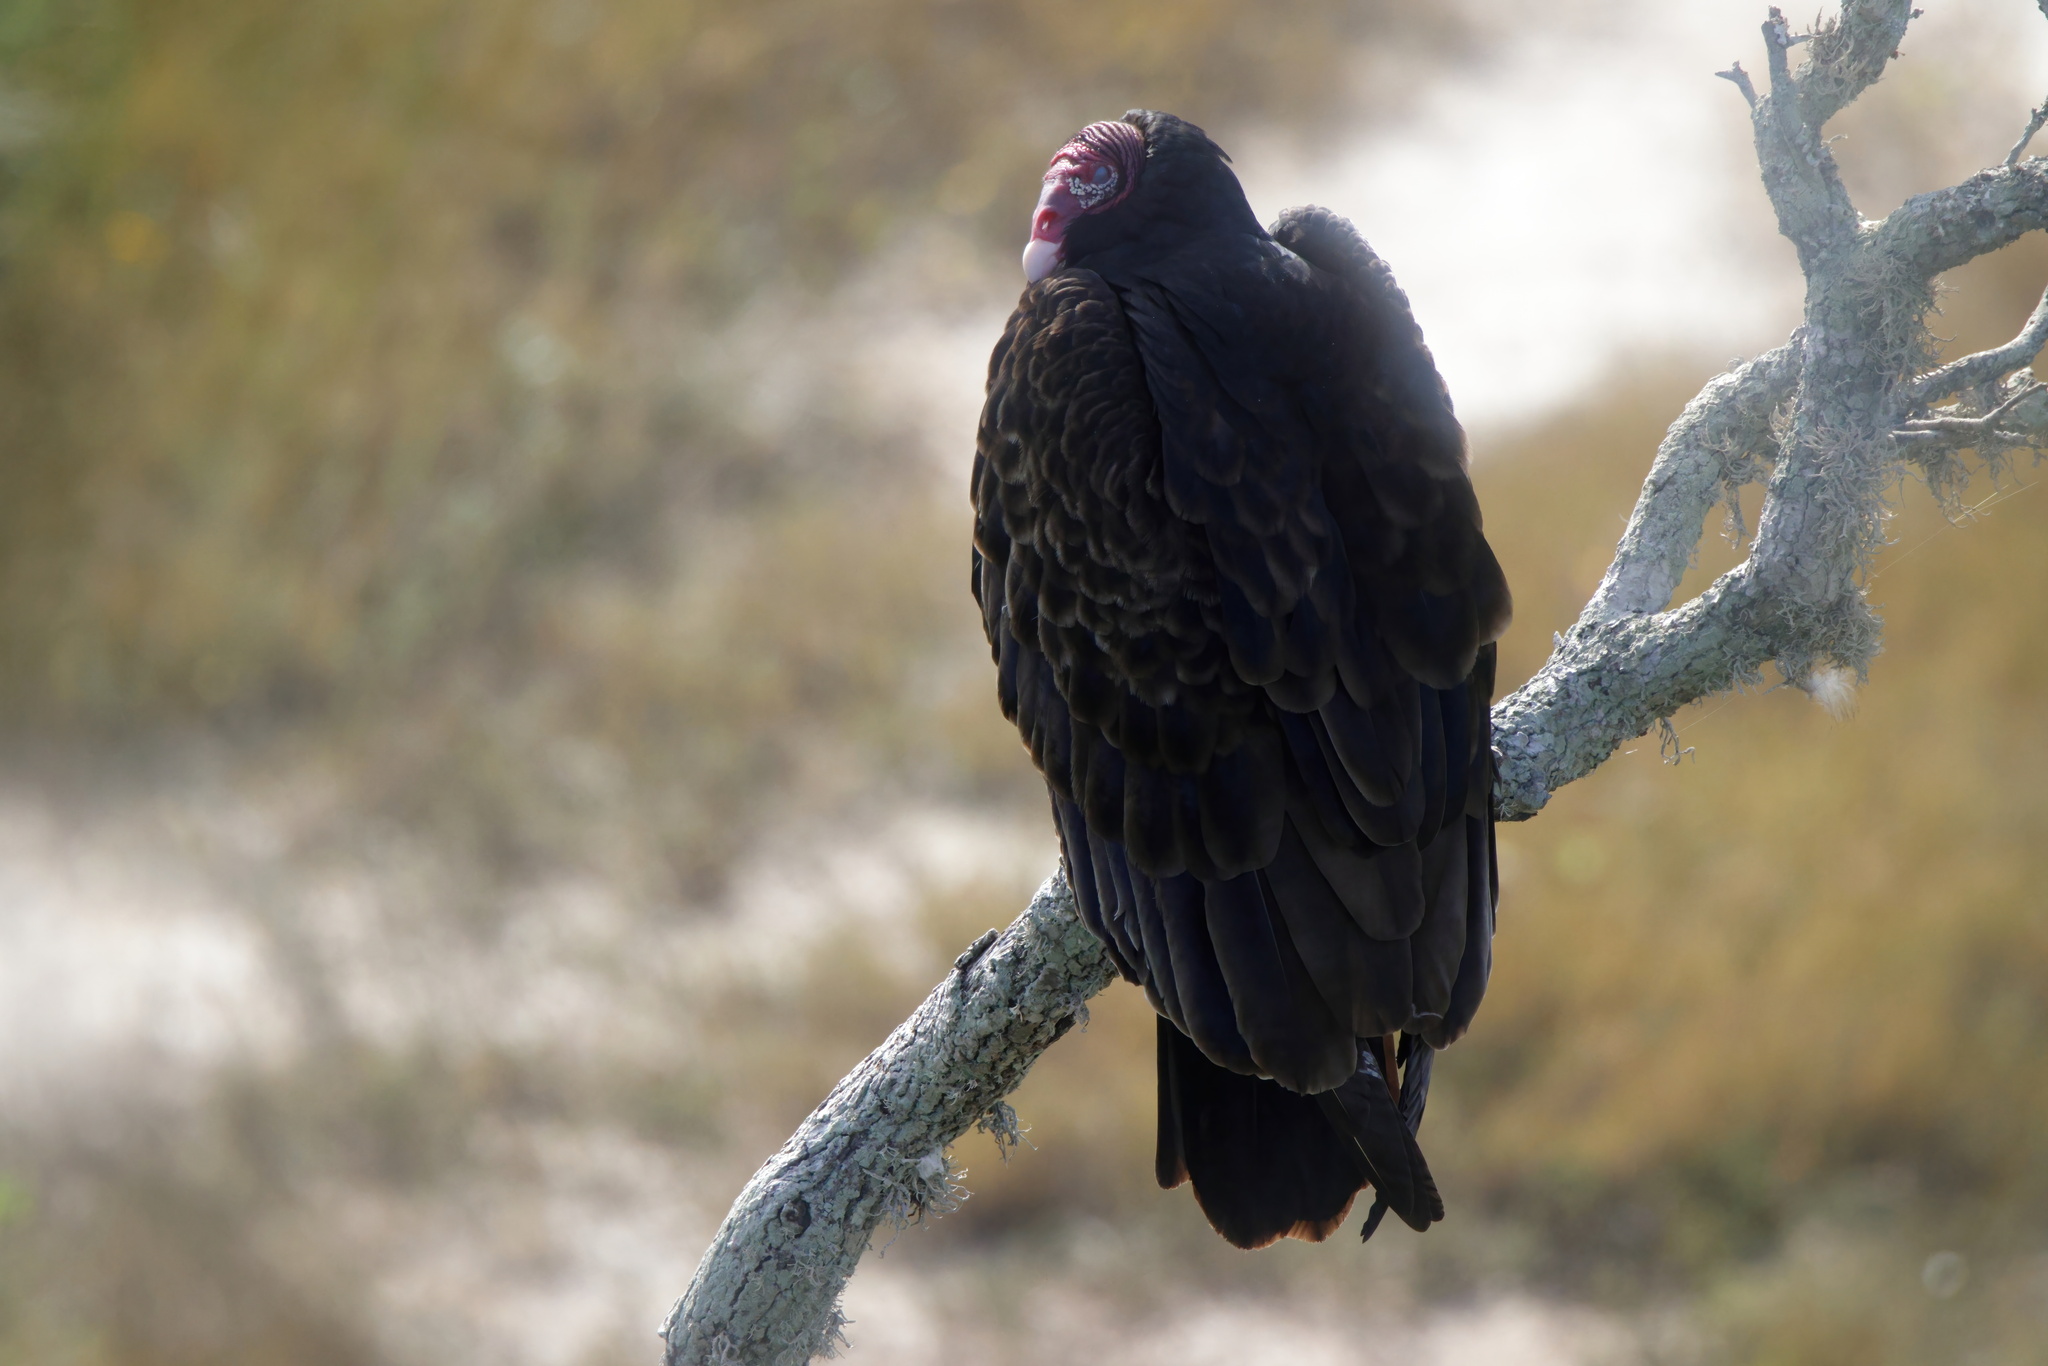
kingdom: Animalia
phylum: Chordata
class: Aves
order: Accipitriformes
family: Cathartidae
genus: Cathartes
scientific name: Cathartes aura
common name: Turkey vulture
